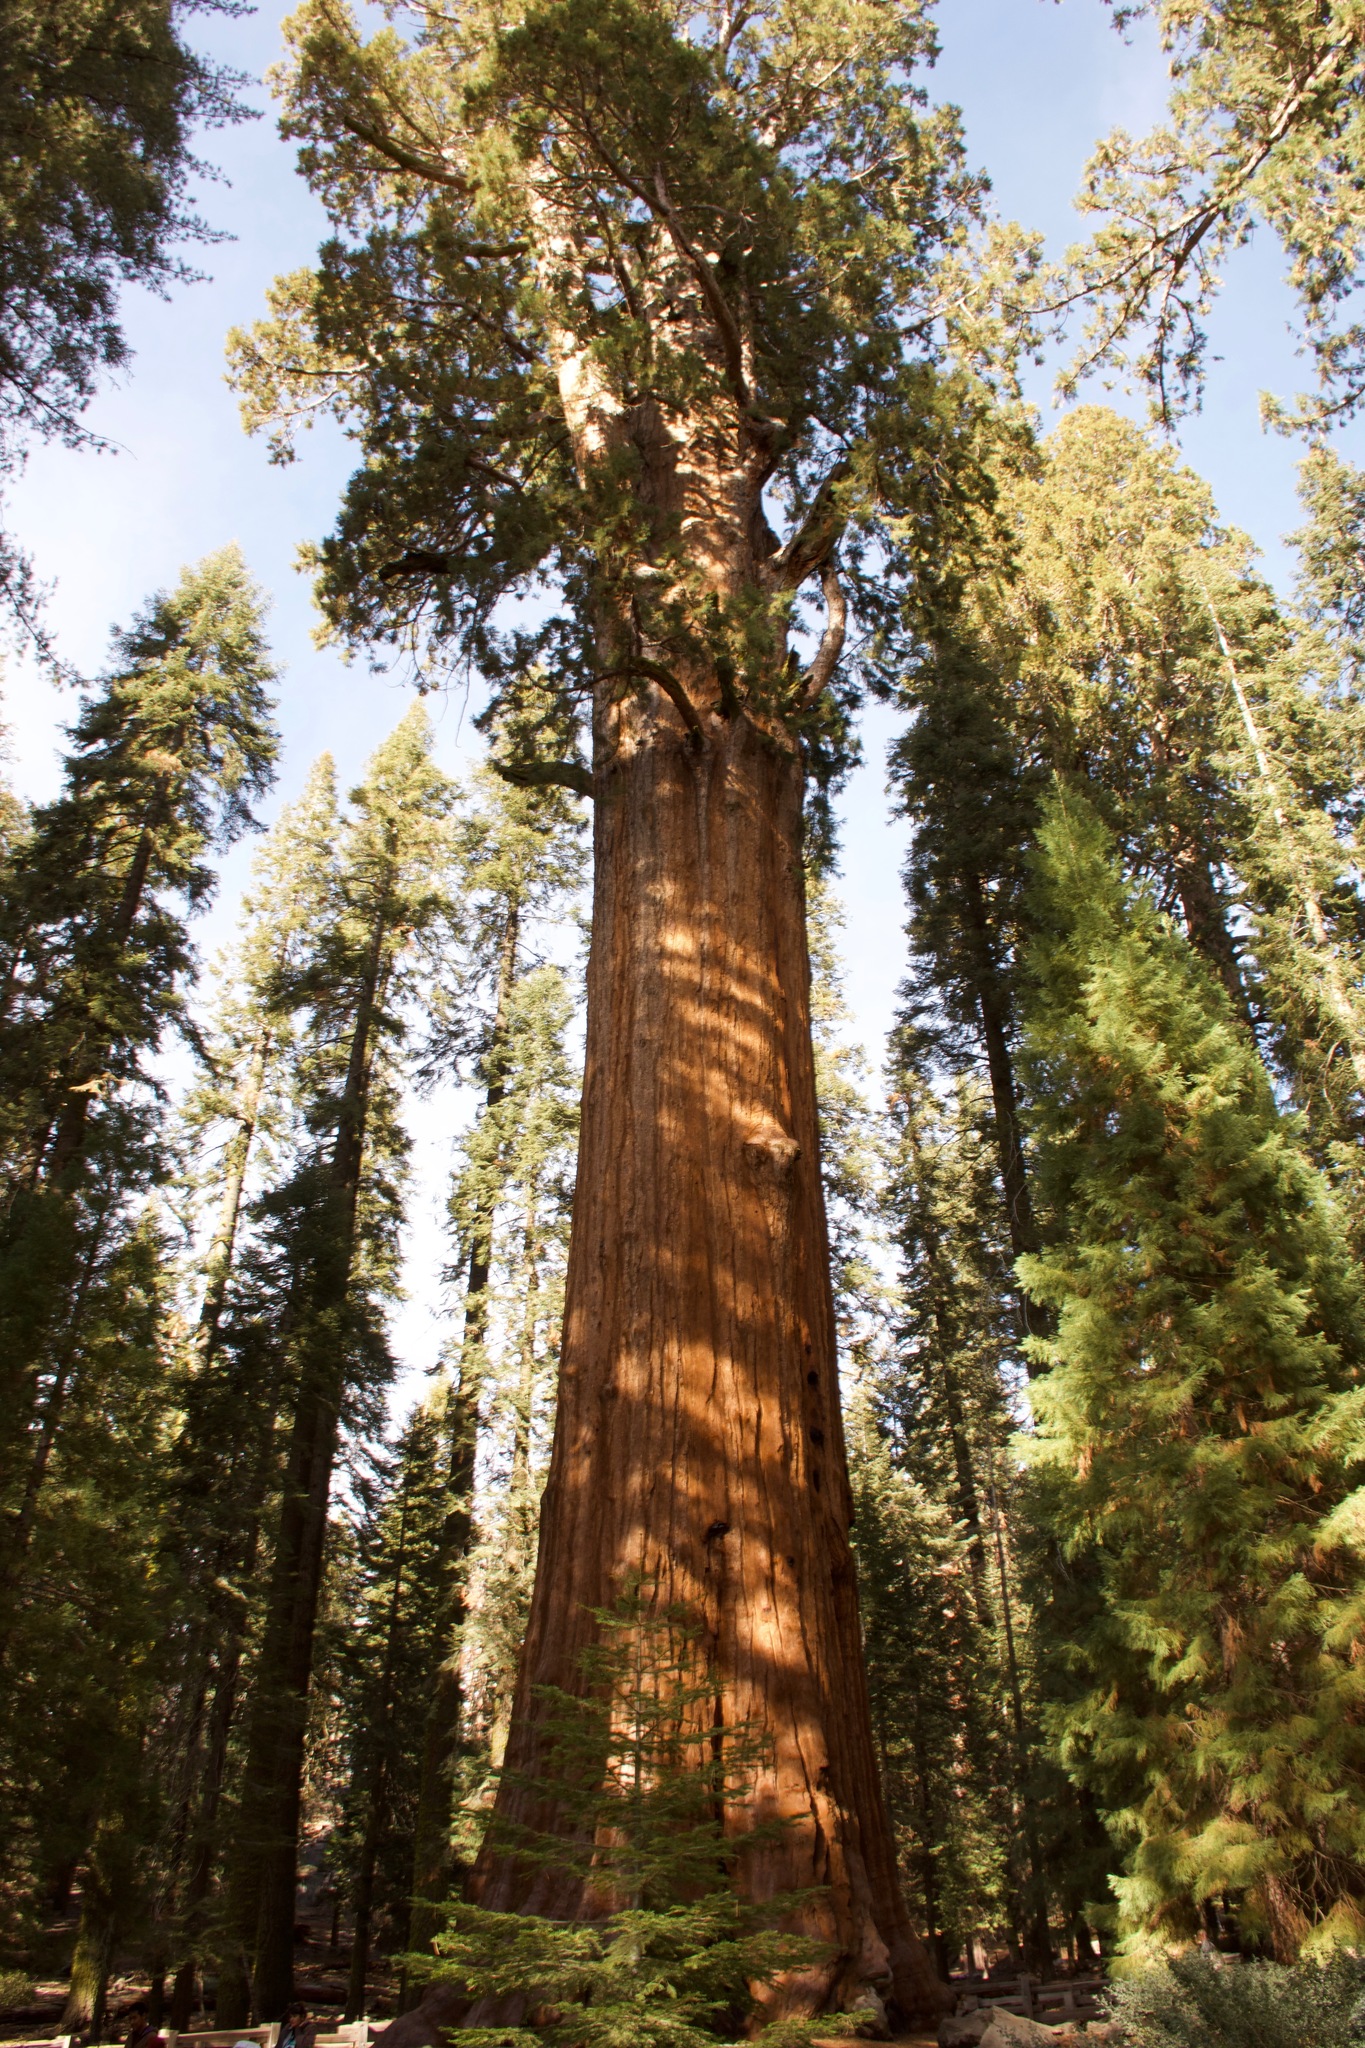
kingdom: Plantae
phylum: Tracheophyta
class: Pinopsida
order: Pinales
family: Cupressaceae
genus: Sequoiadendron
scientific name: Sequoiadendron giganteum
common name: Wellingtonia
